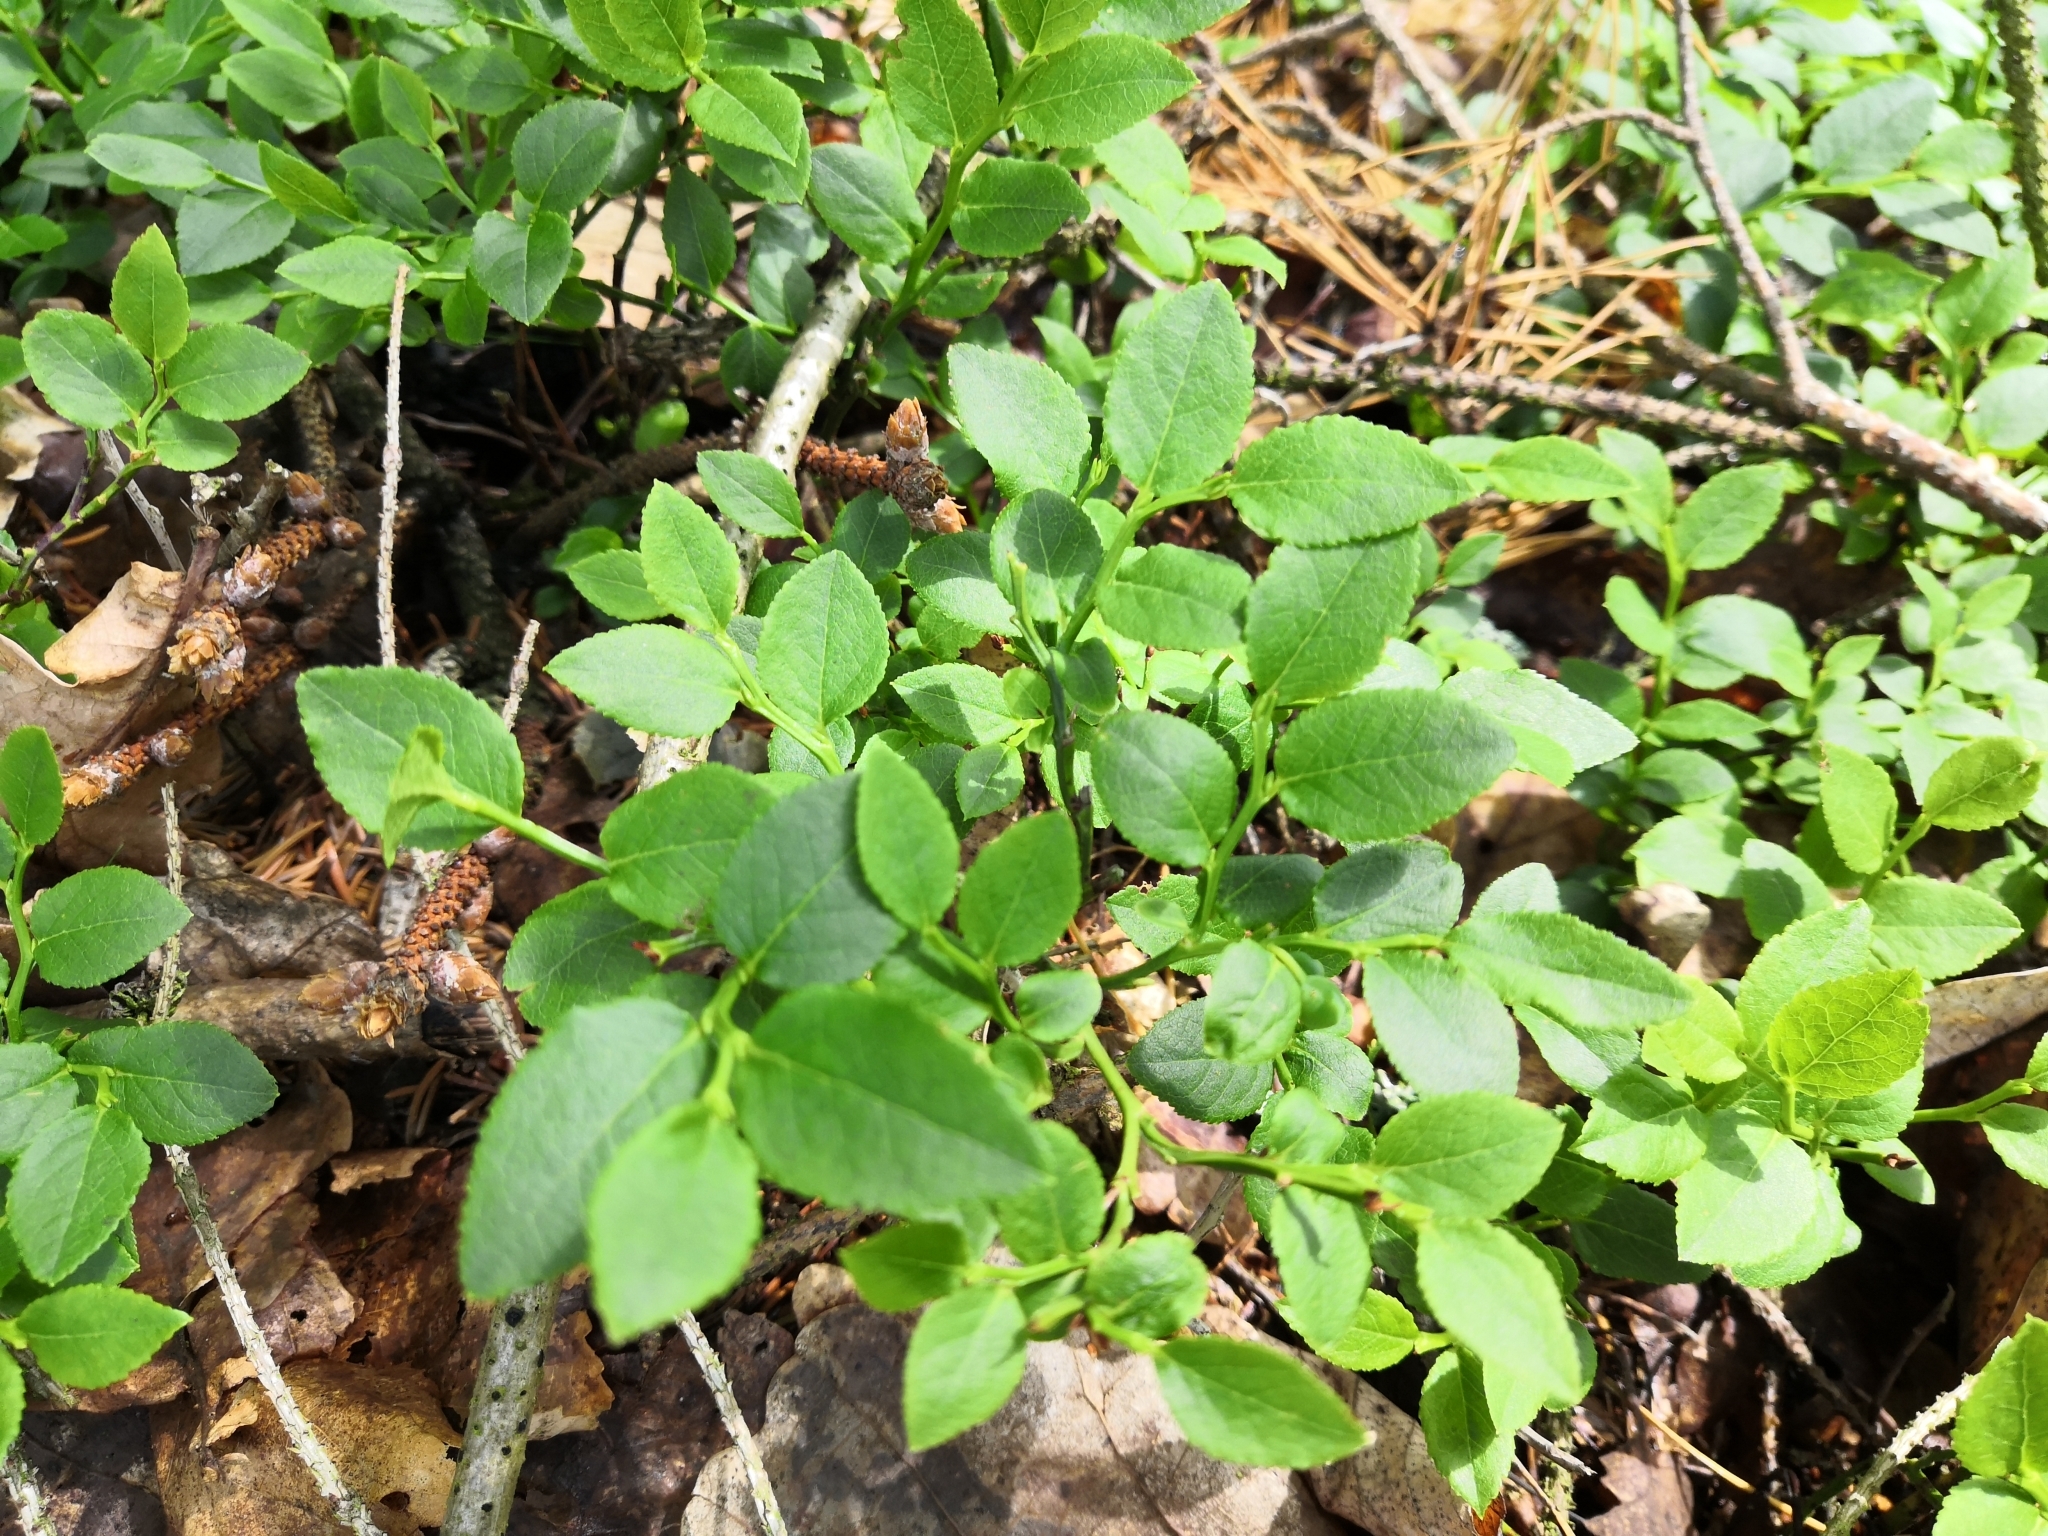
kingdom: Plantae
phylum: Tracheophyta
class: Magnoliopsida
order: Ericales
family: Ericaceae
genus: Vaccinium
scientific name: Vaccinium myrtillus
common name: Bilberry
